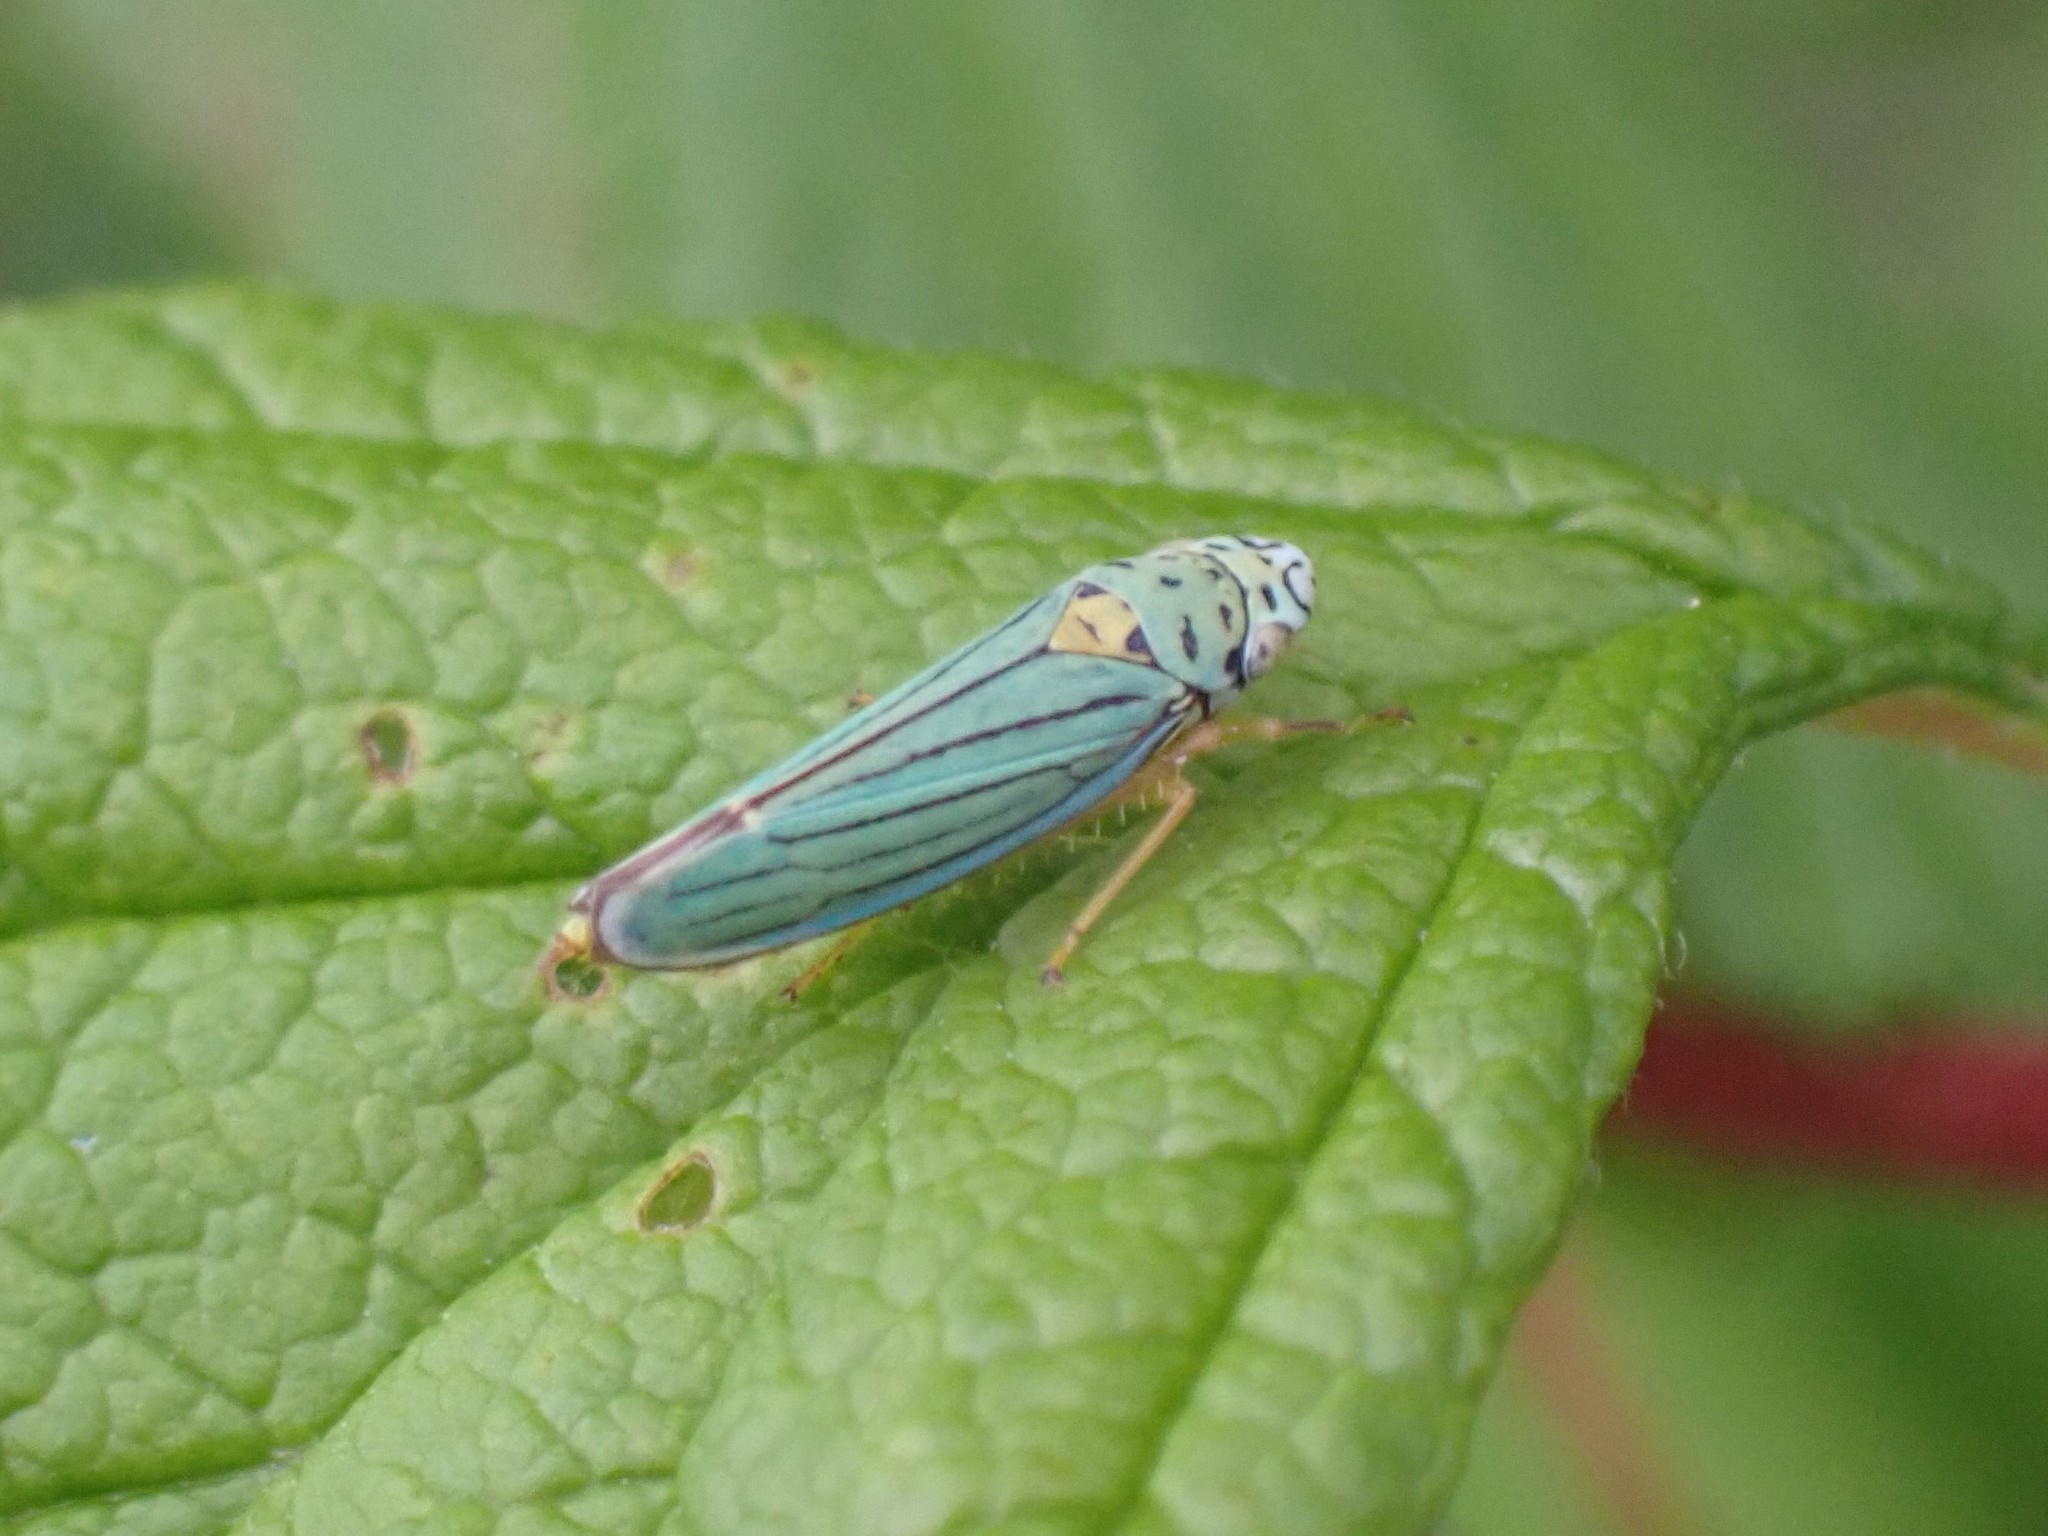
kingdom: Animalia
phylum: Arthropoda
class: Insecta
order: Hemiptera
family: Cicadellidae
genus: Graphocephala
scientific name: Graphocephala atropunctata
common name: Blue-green sharpshooter
